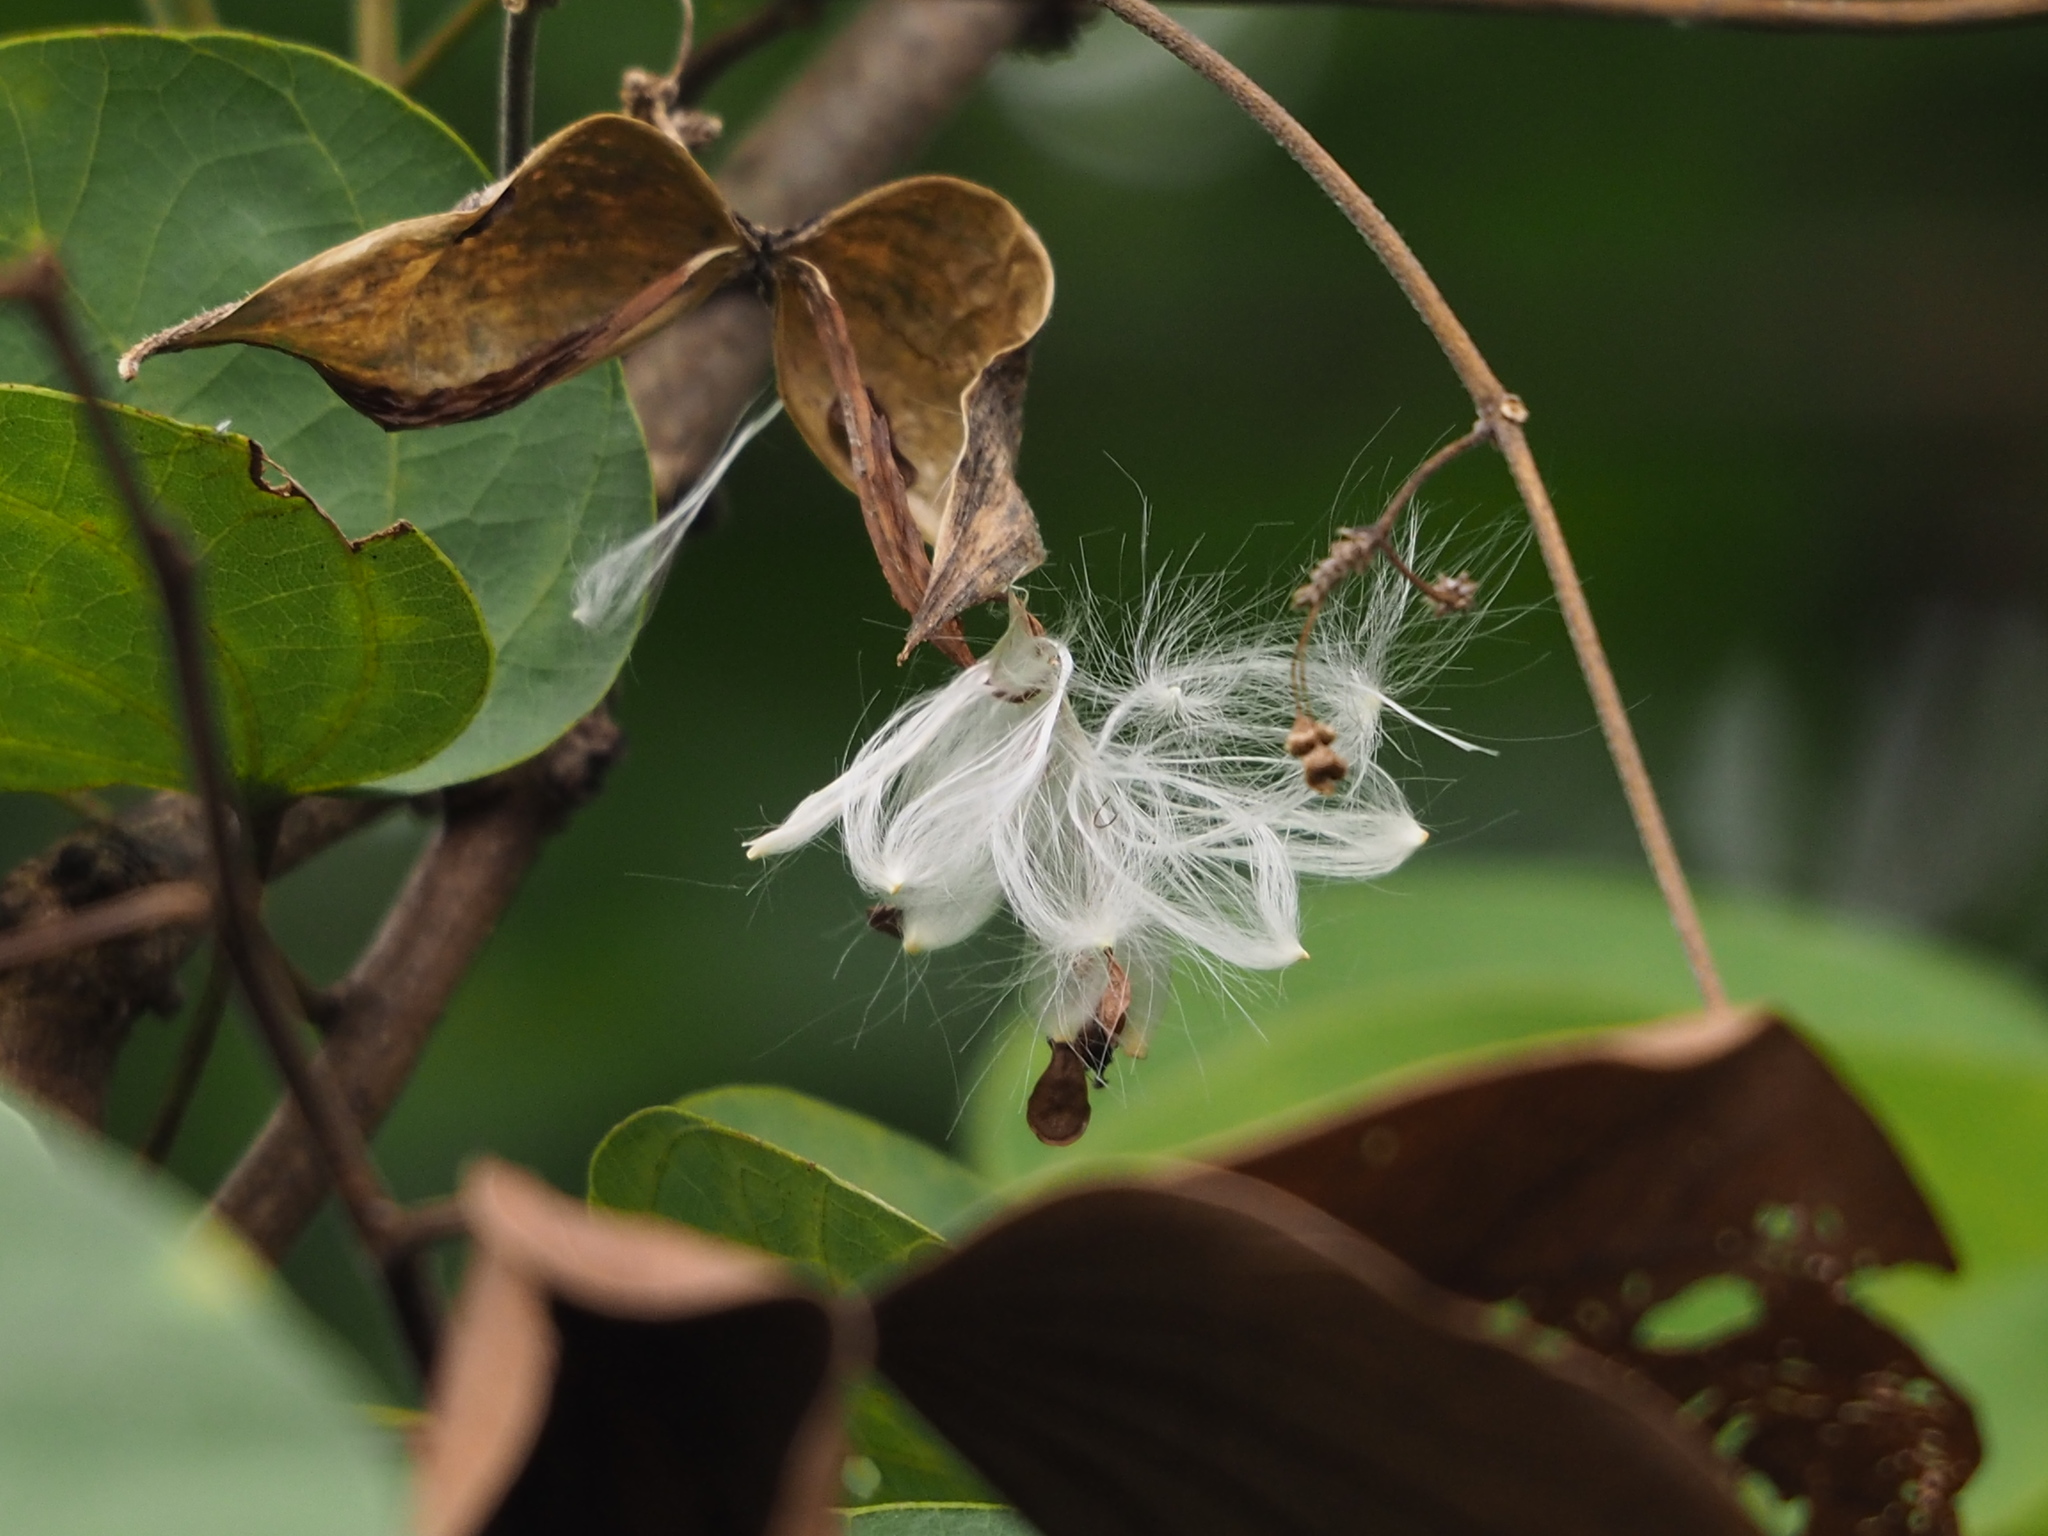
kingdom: Plantae
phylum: Tracheophyta
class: Magnoliopsida
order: Gentianales
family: Apocynaceae
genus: Urceola
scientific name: Urceola rosea
